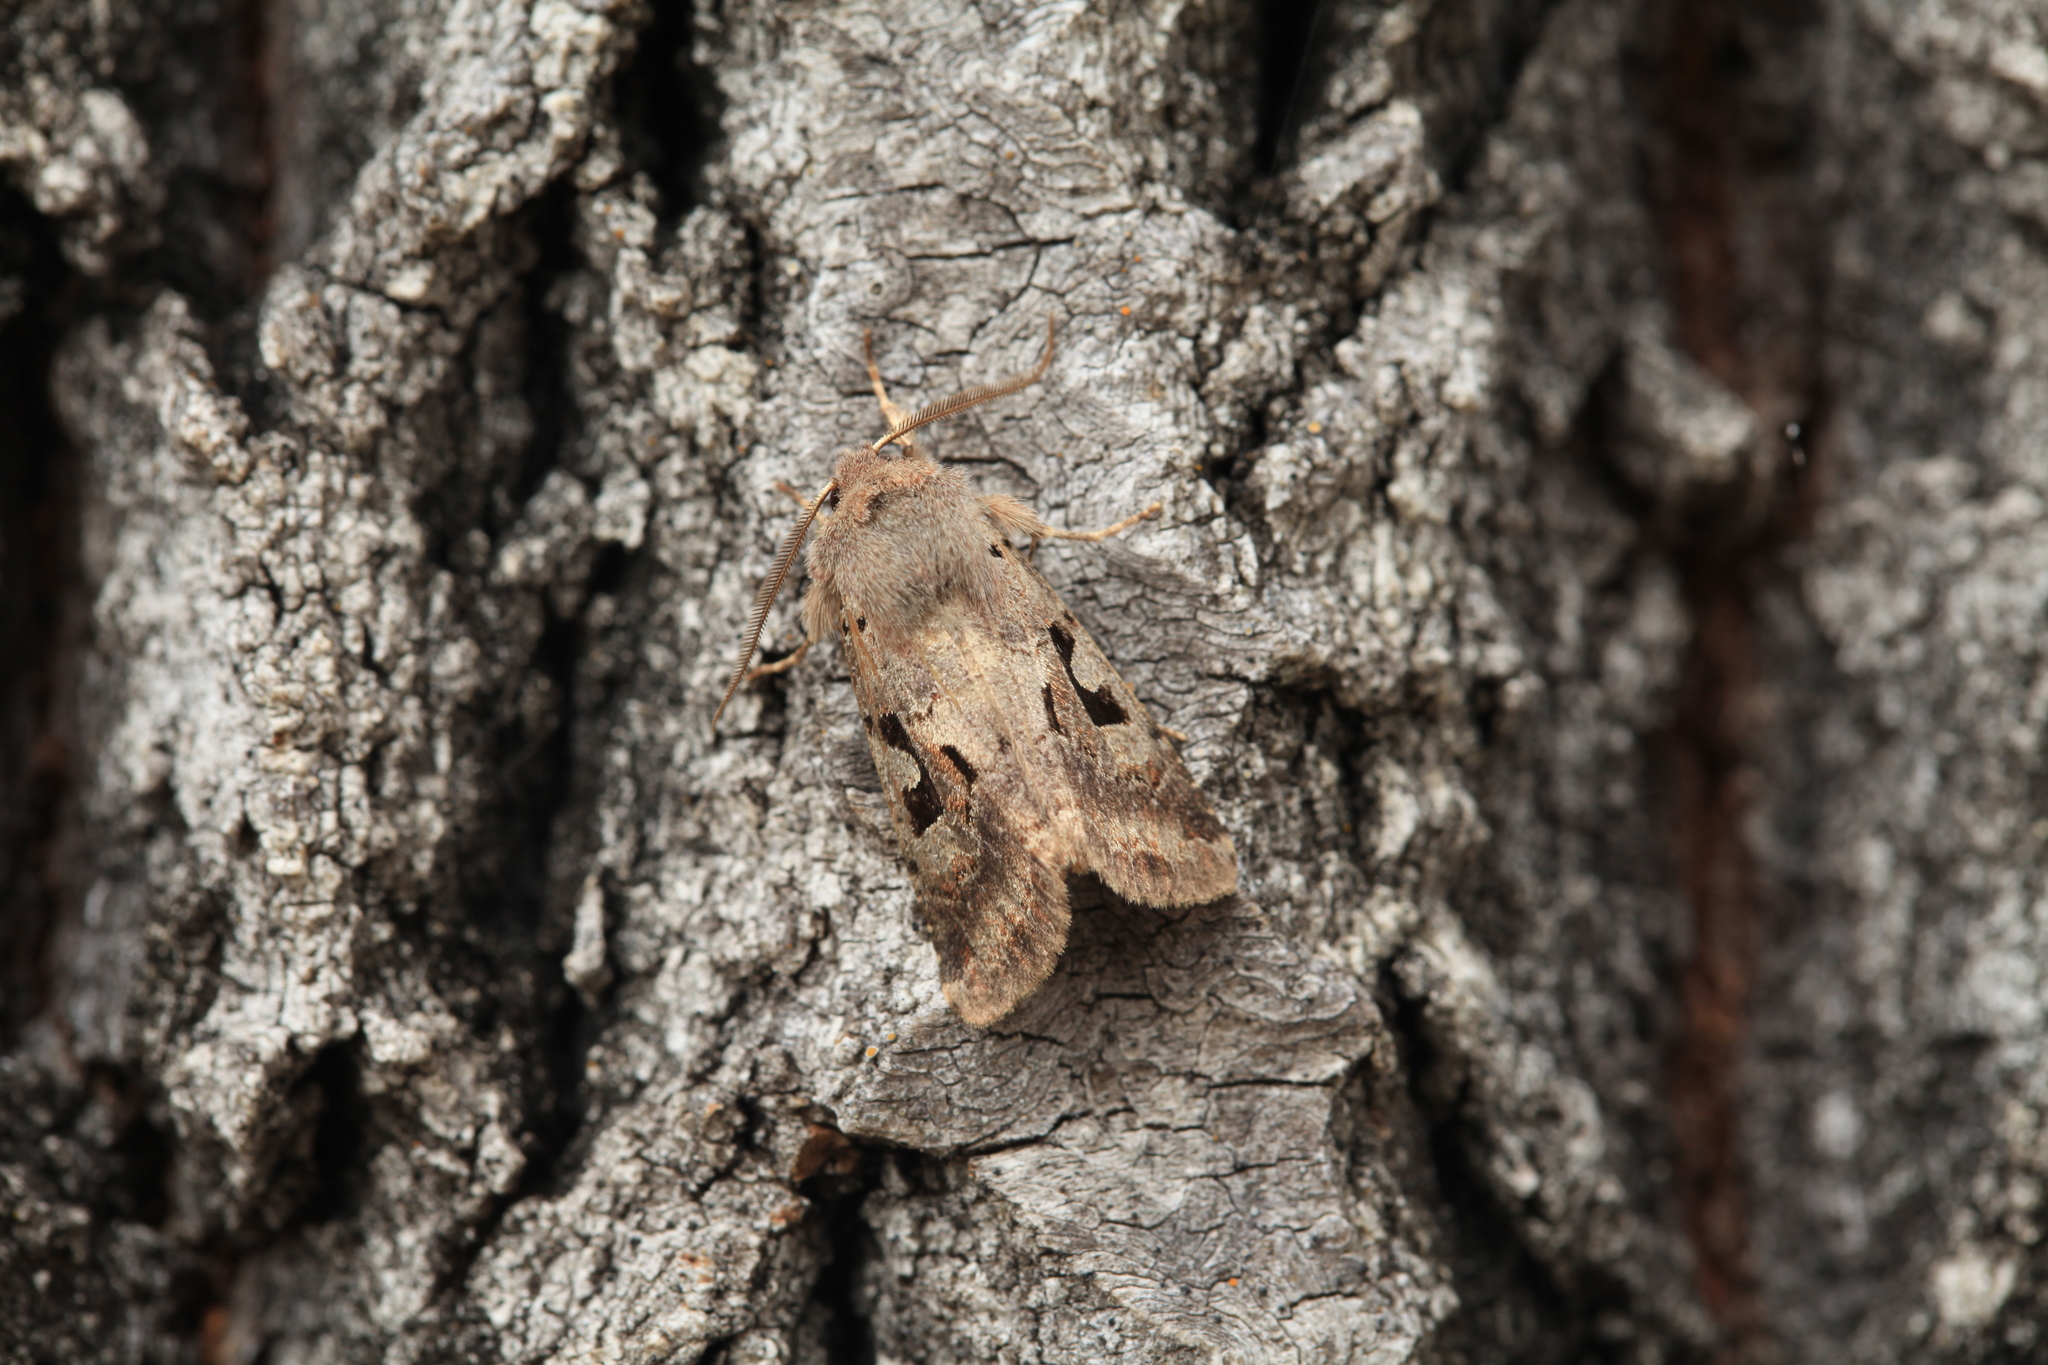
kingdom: Animalia
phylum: Arthropoda
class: Insecta
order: Lepidoptera
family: Noctuidae
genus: Orthosia
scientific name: Orthosia gothica
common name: Hebrew character
